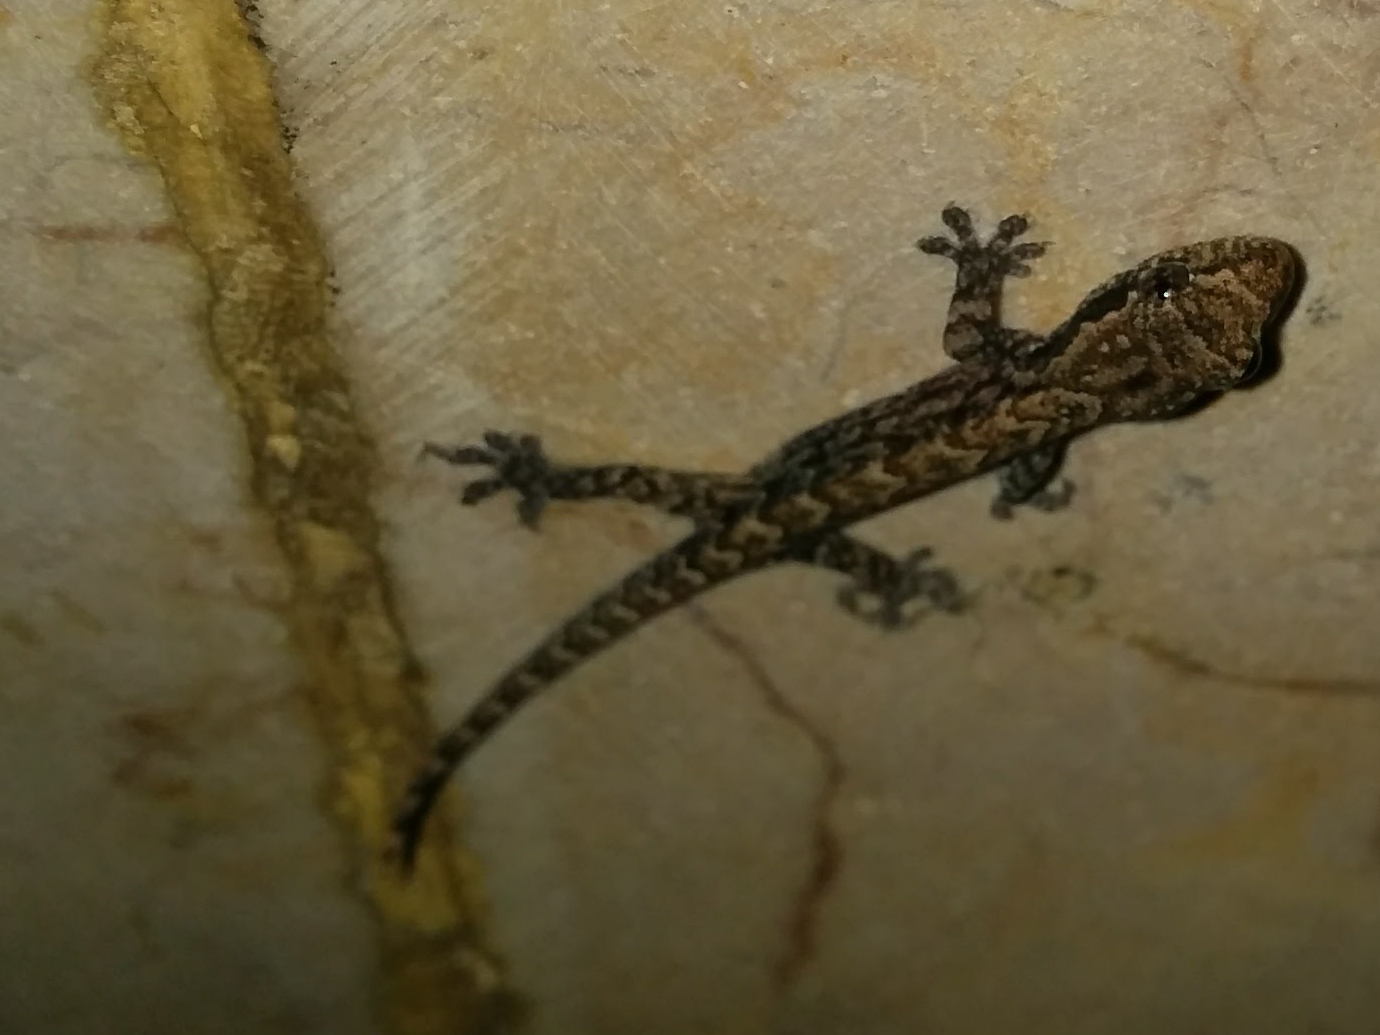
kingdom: Animalia
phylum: Chordata
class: Squamata
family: Gekkonidae
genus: Lepidodactylus
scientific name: Lepidodactylus lugubris
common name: Mourning gecko
